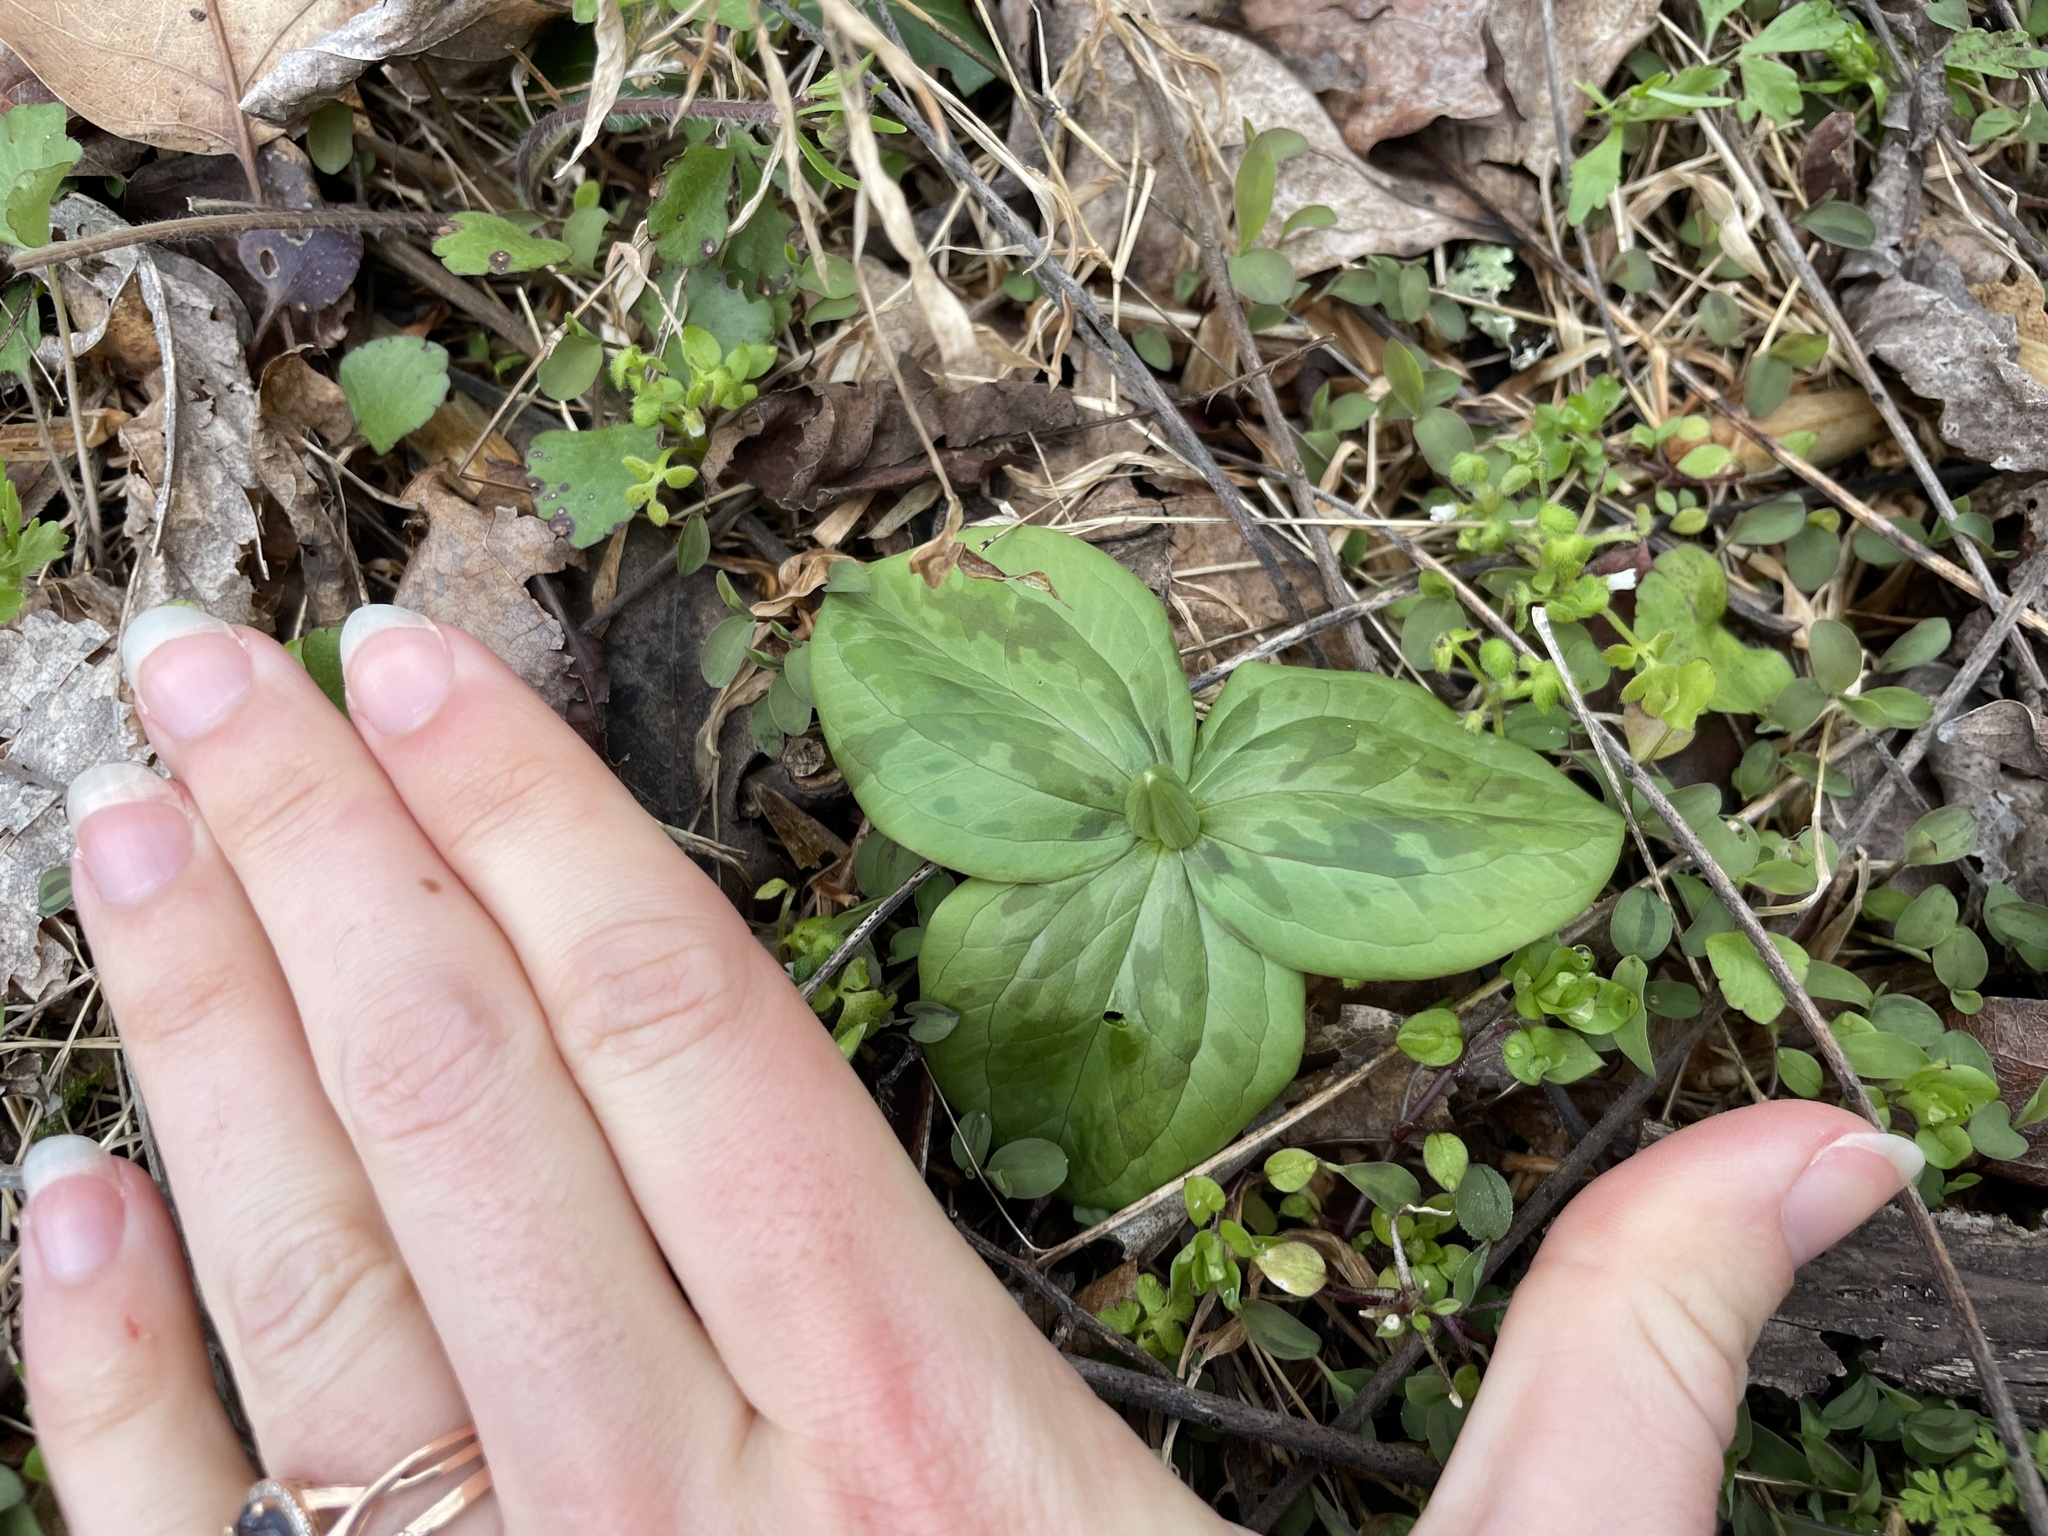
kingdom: Plantae
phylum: Tracheophyta
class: Liliopsida
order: Liliales
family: Melanthiaceae
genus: Trillium
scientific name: Trillium sessile
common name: Sessile trillium
